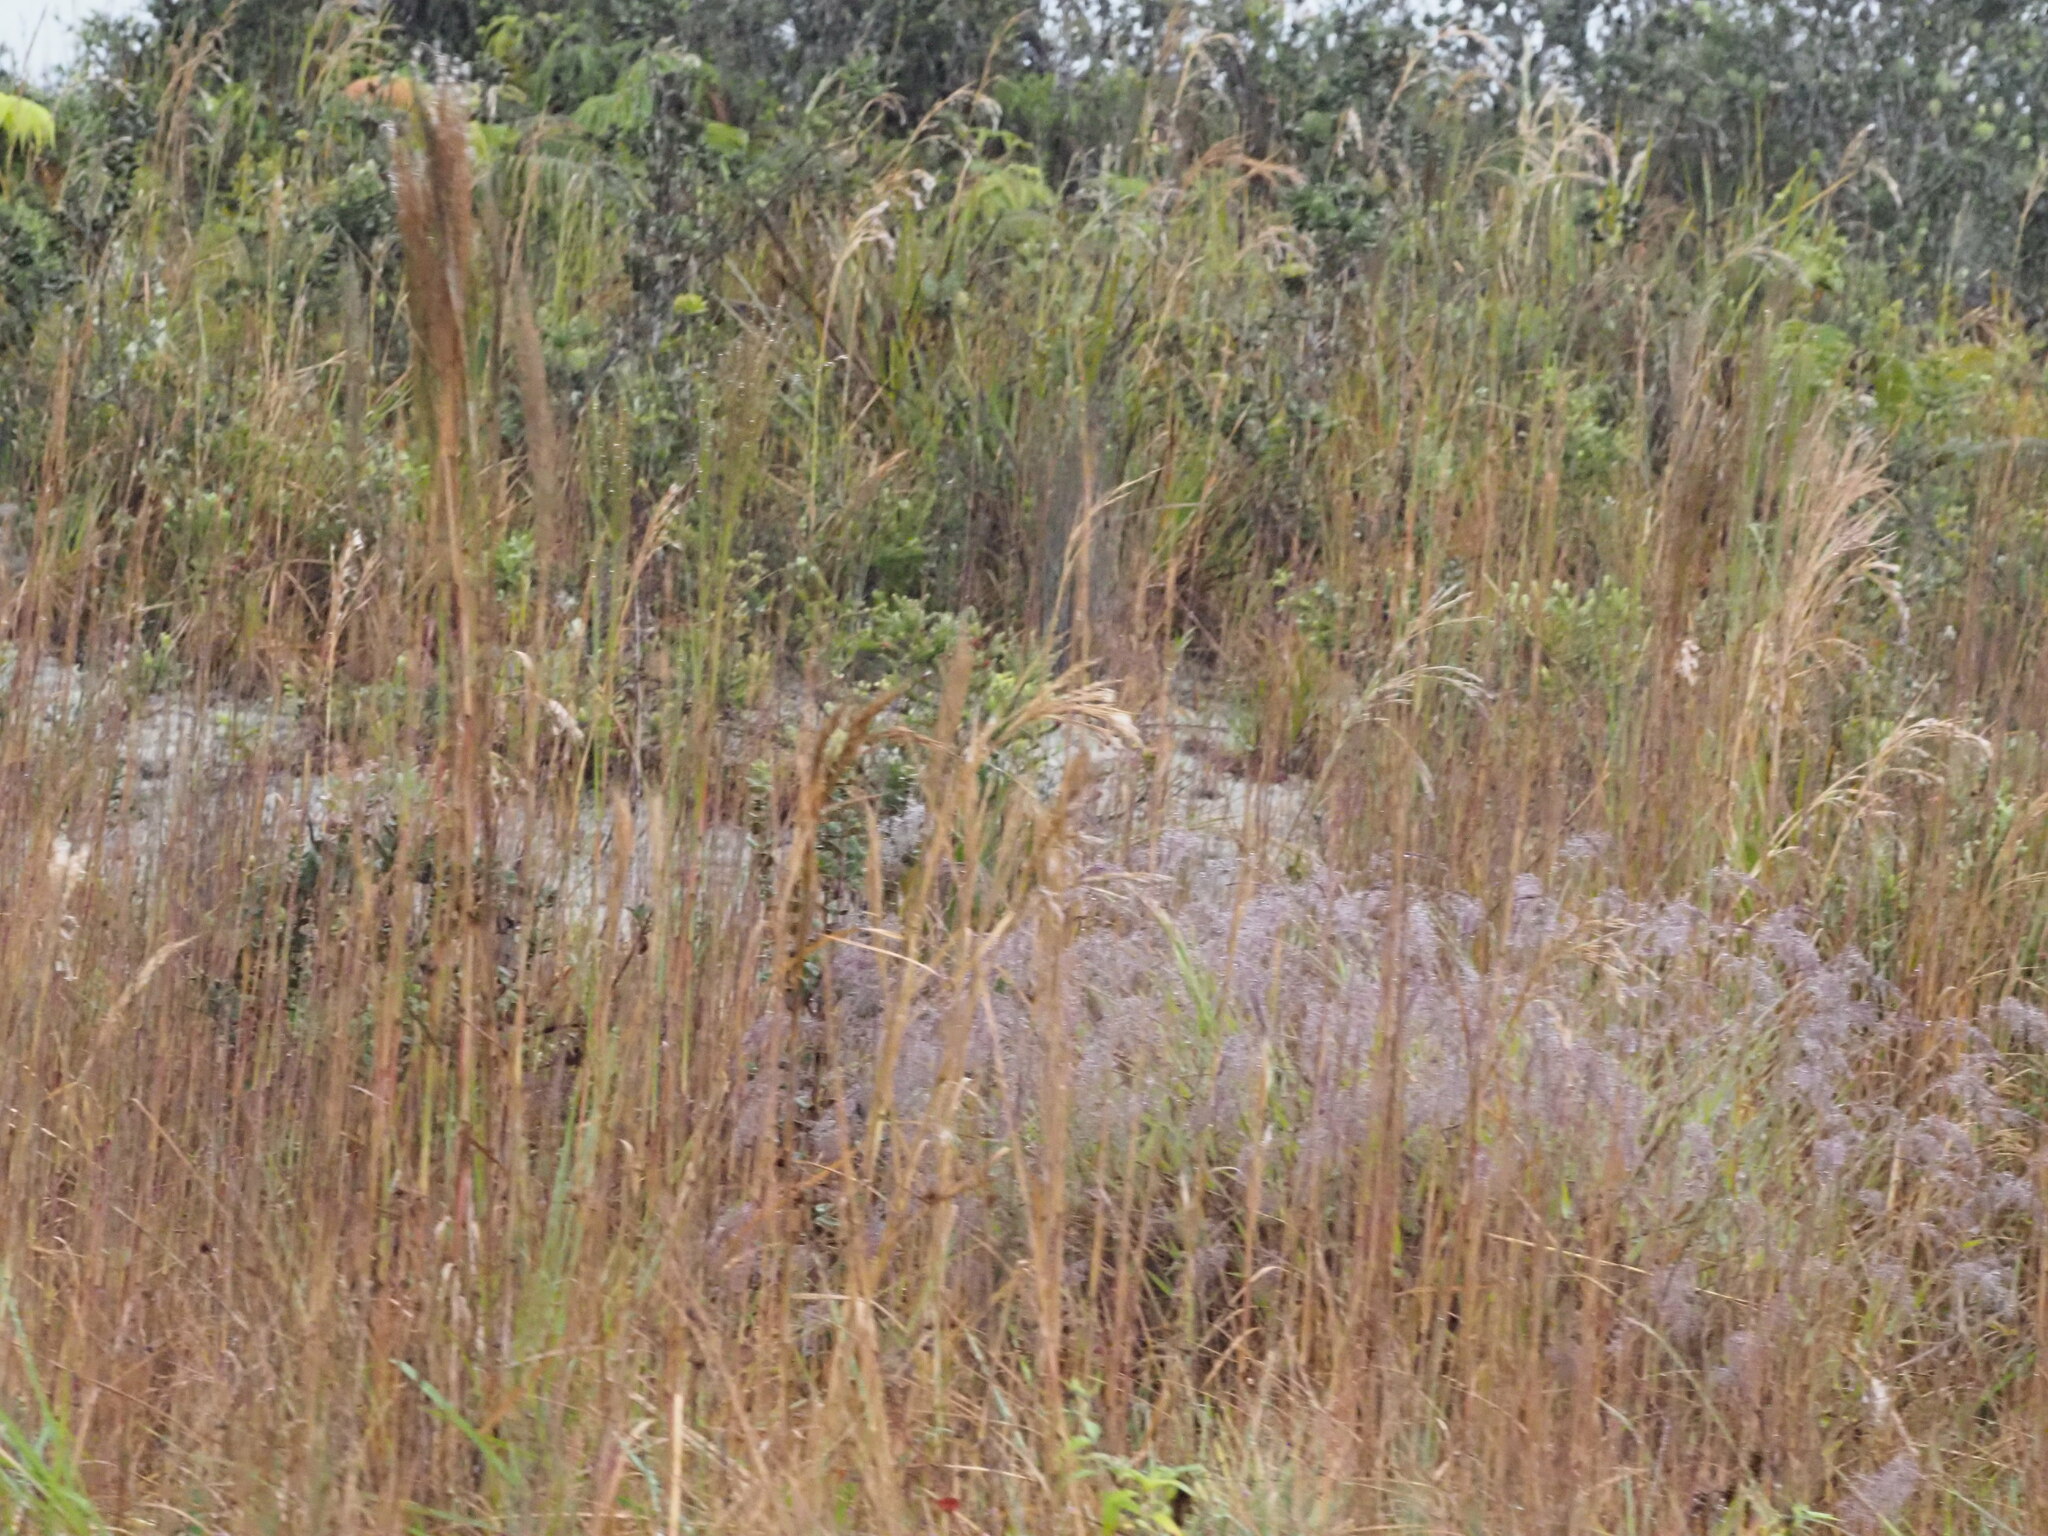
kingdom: Plantae
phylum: Tracheophyta
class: Liliopsida
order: Poales
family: Poaceae
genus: Andropogon
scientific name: Andropogon bicornis
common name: West indian foxtail grass
